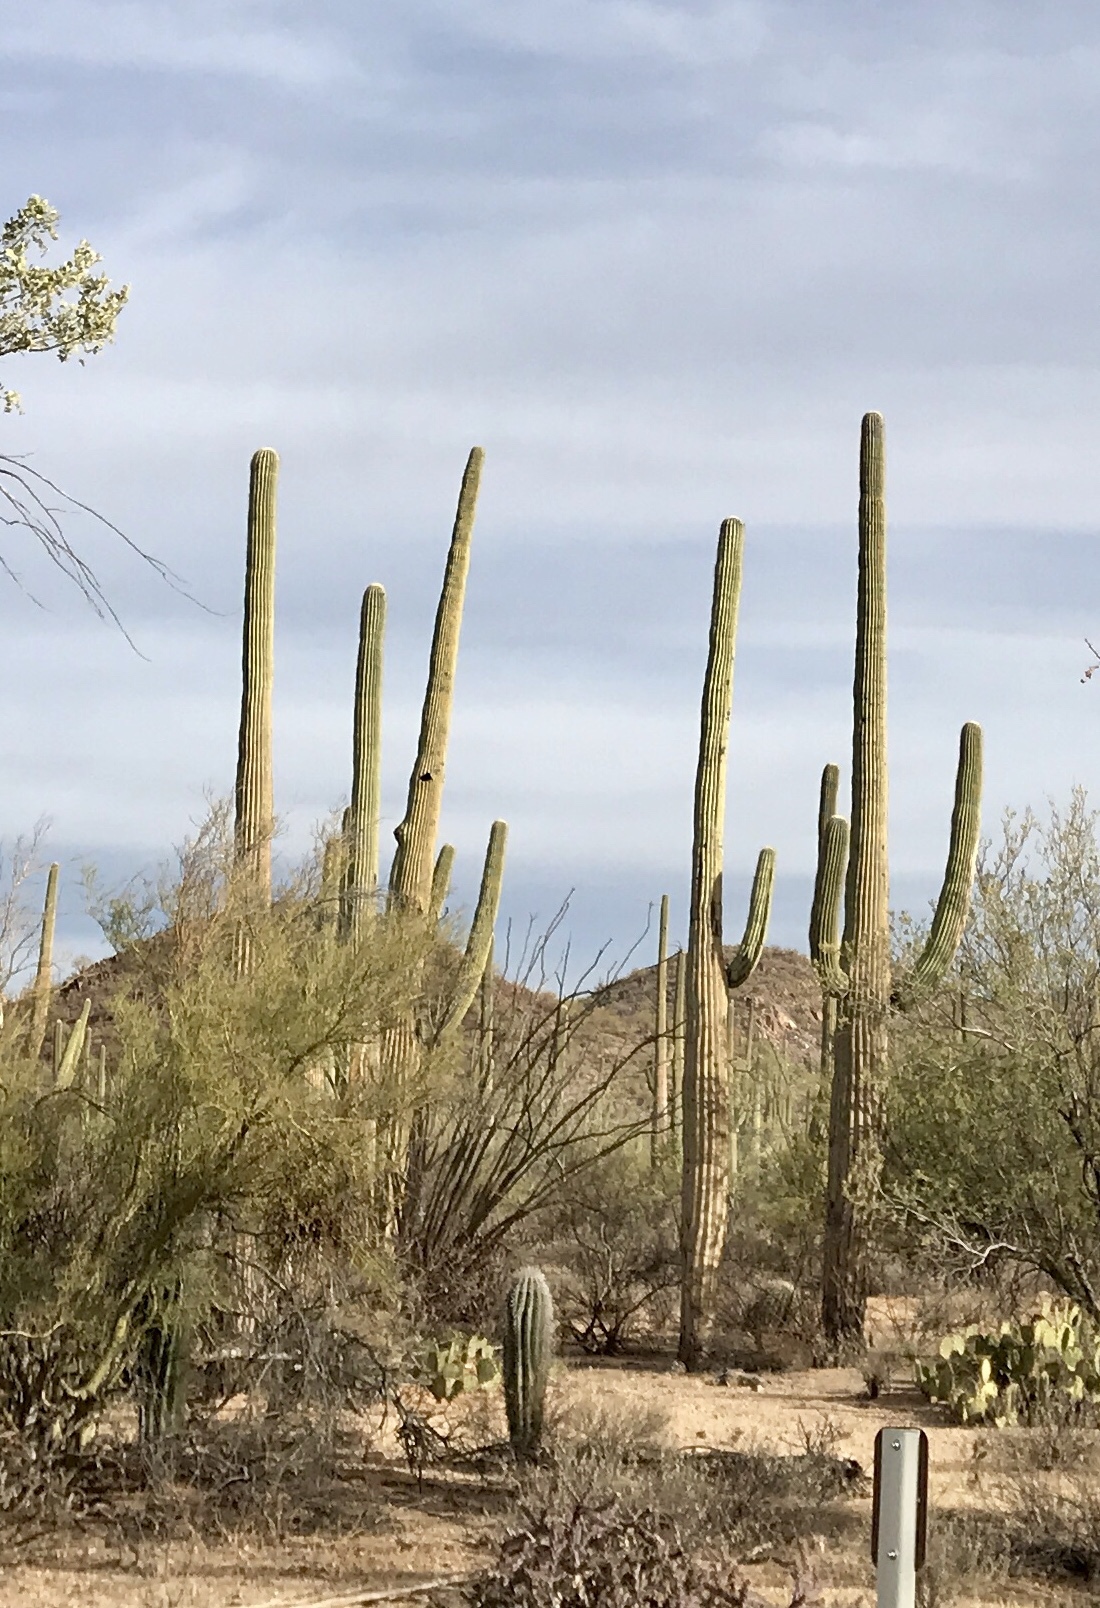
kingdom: Plantae
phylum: Tracheophyta
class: Magnoliopsida
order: Caryophyllales
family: Cactaceae
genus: Carnegiea
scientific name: Carnegiea gigantea
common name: Saguaro
